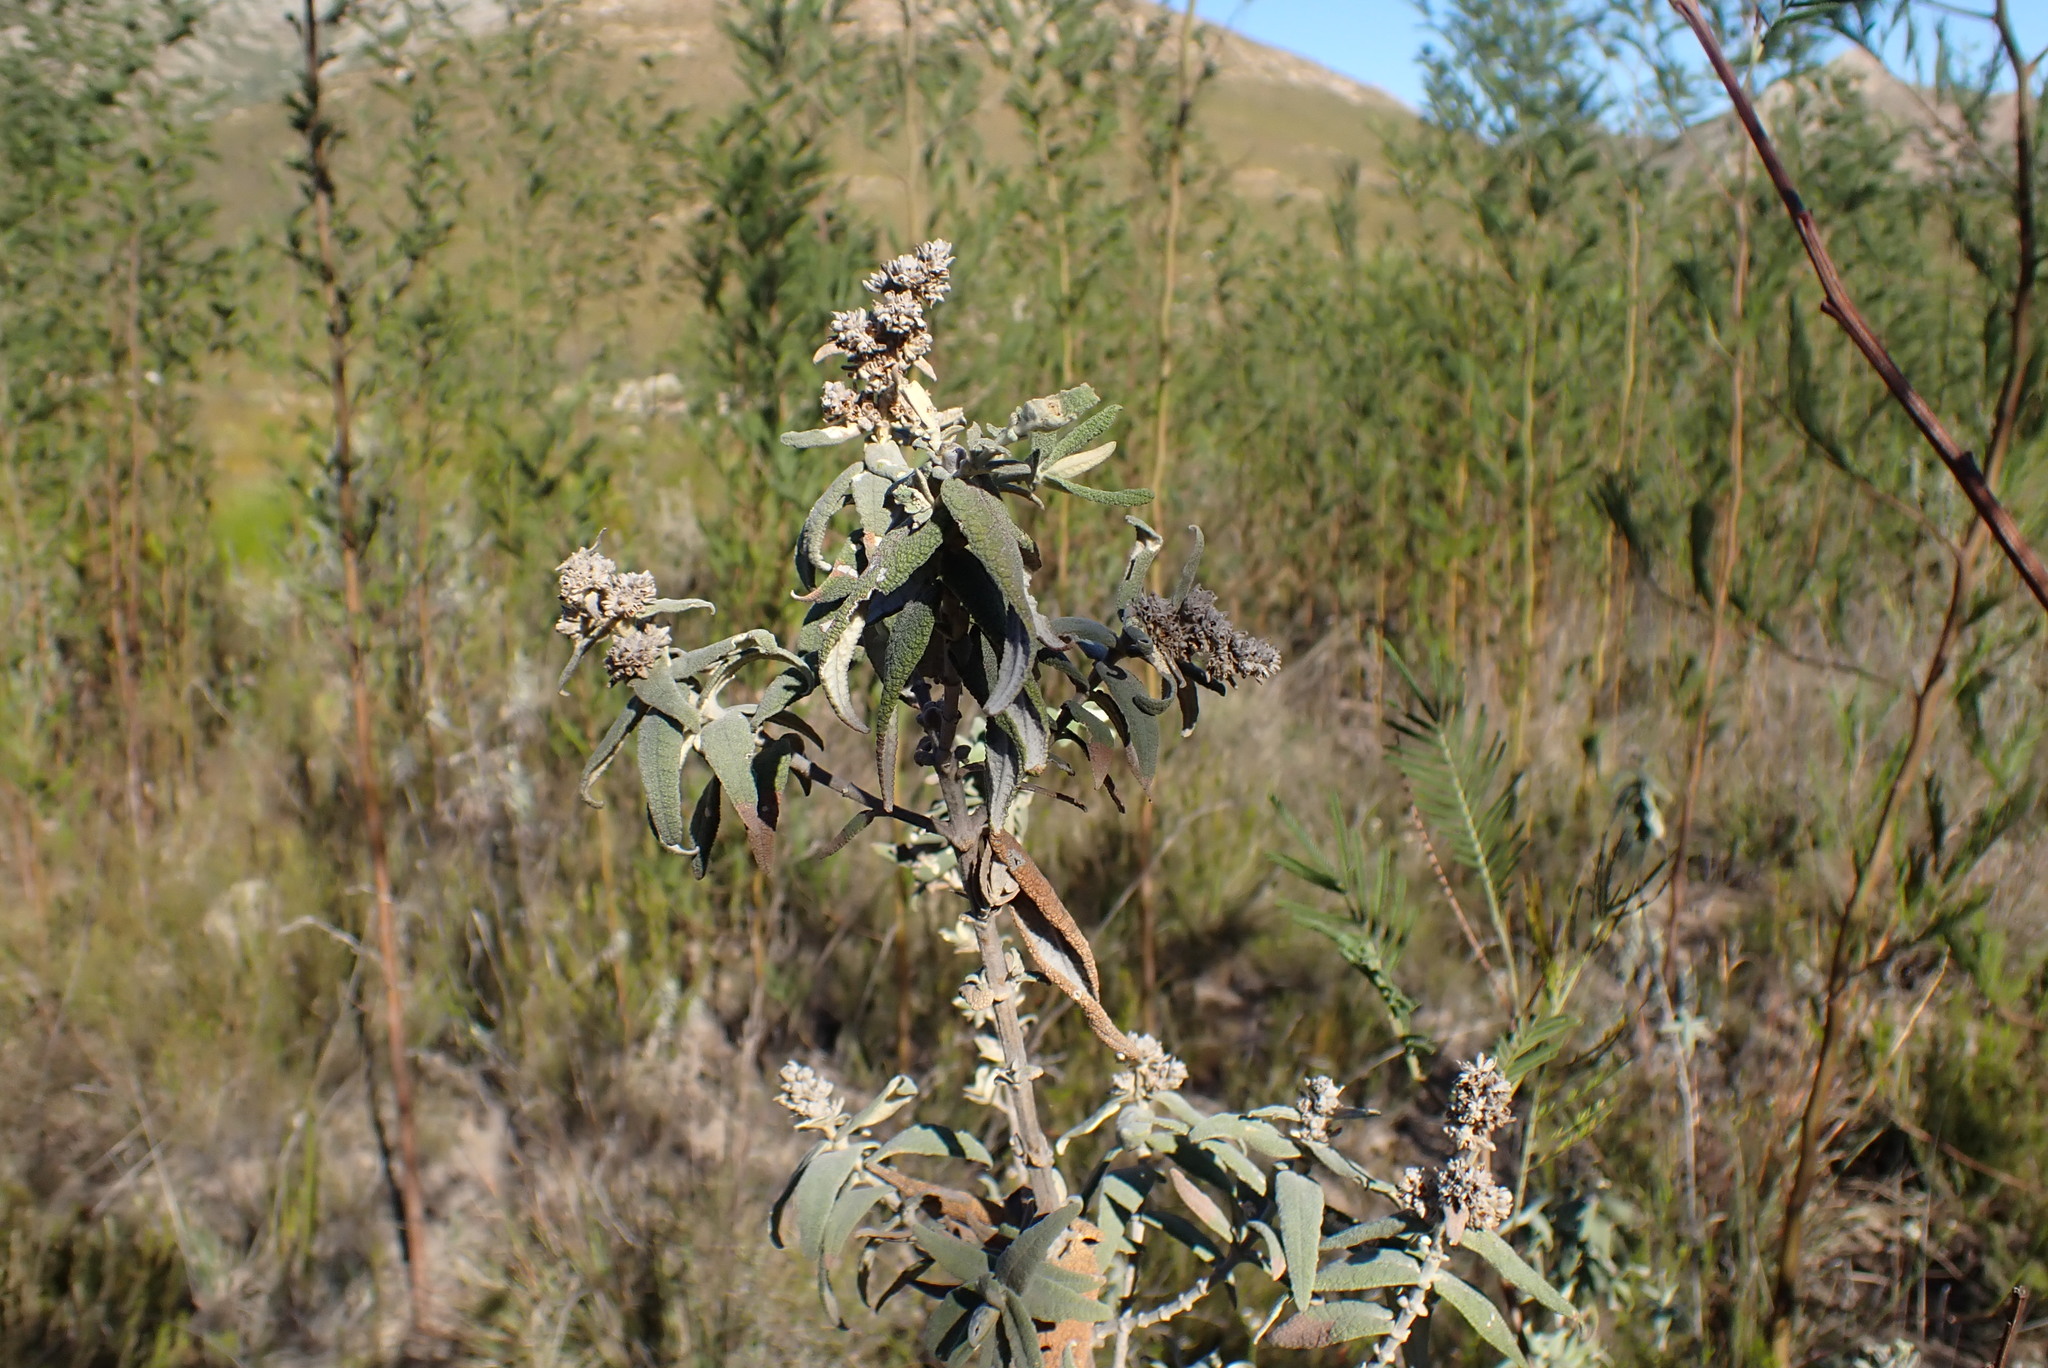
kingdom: Plantae
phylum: Tracheophyta
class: Magnoliopsida
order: Lamiales
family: Scrophulariaceae
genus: Buddleja
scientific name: Buddleja salviifolia
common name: Sagewood
